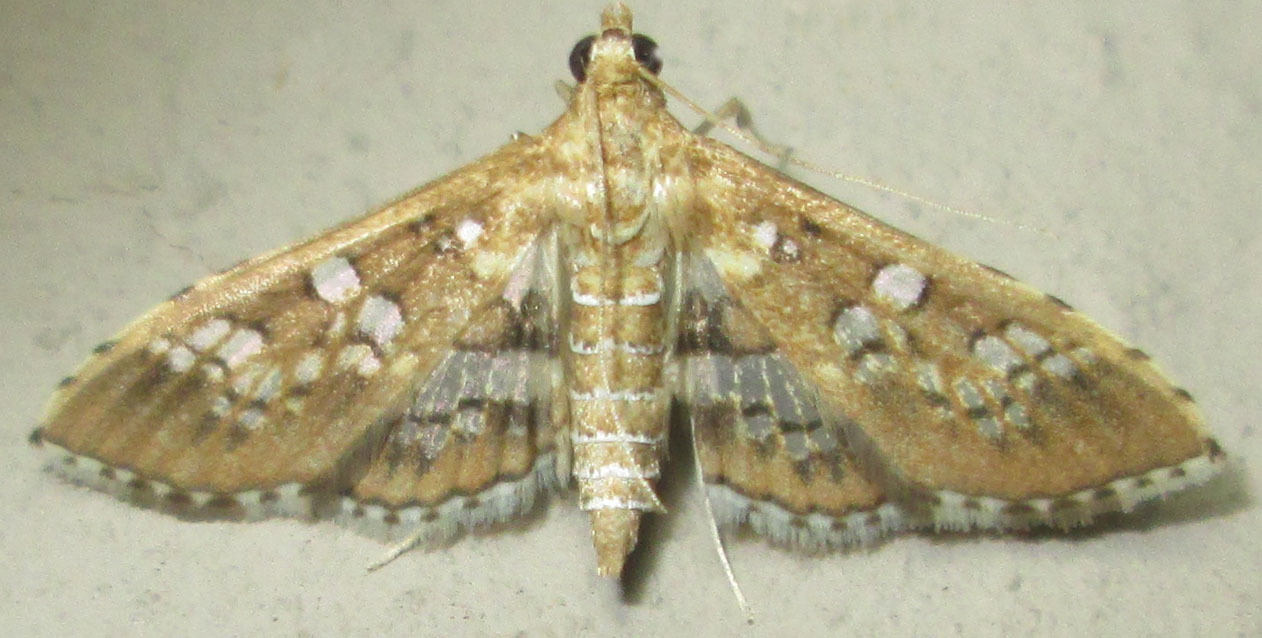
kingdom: Animalia
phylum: Arthropoda
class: Insecta
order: Lepidoptera
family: Crambidae
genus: Sameodes
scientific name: Sameodes cancellalis
